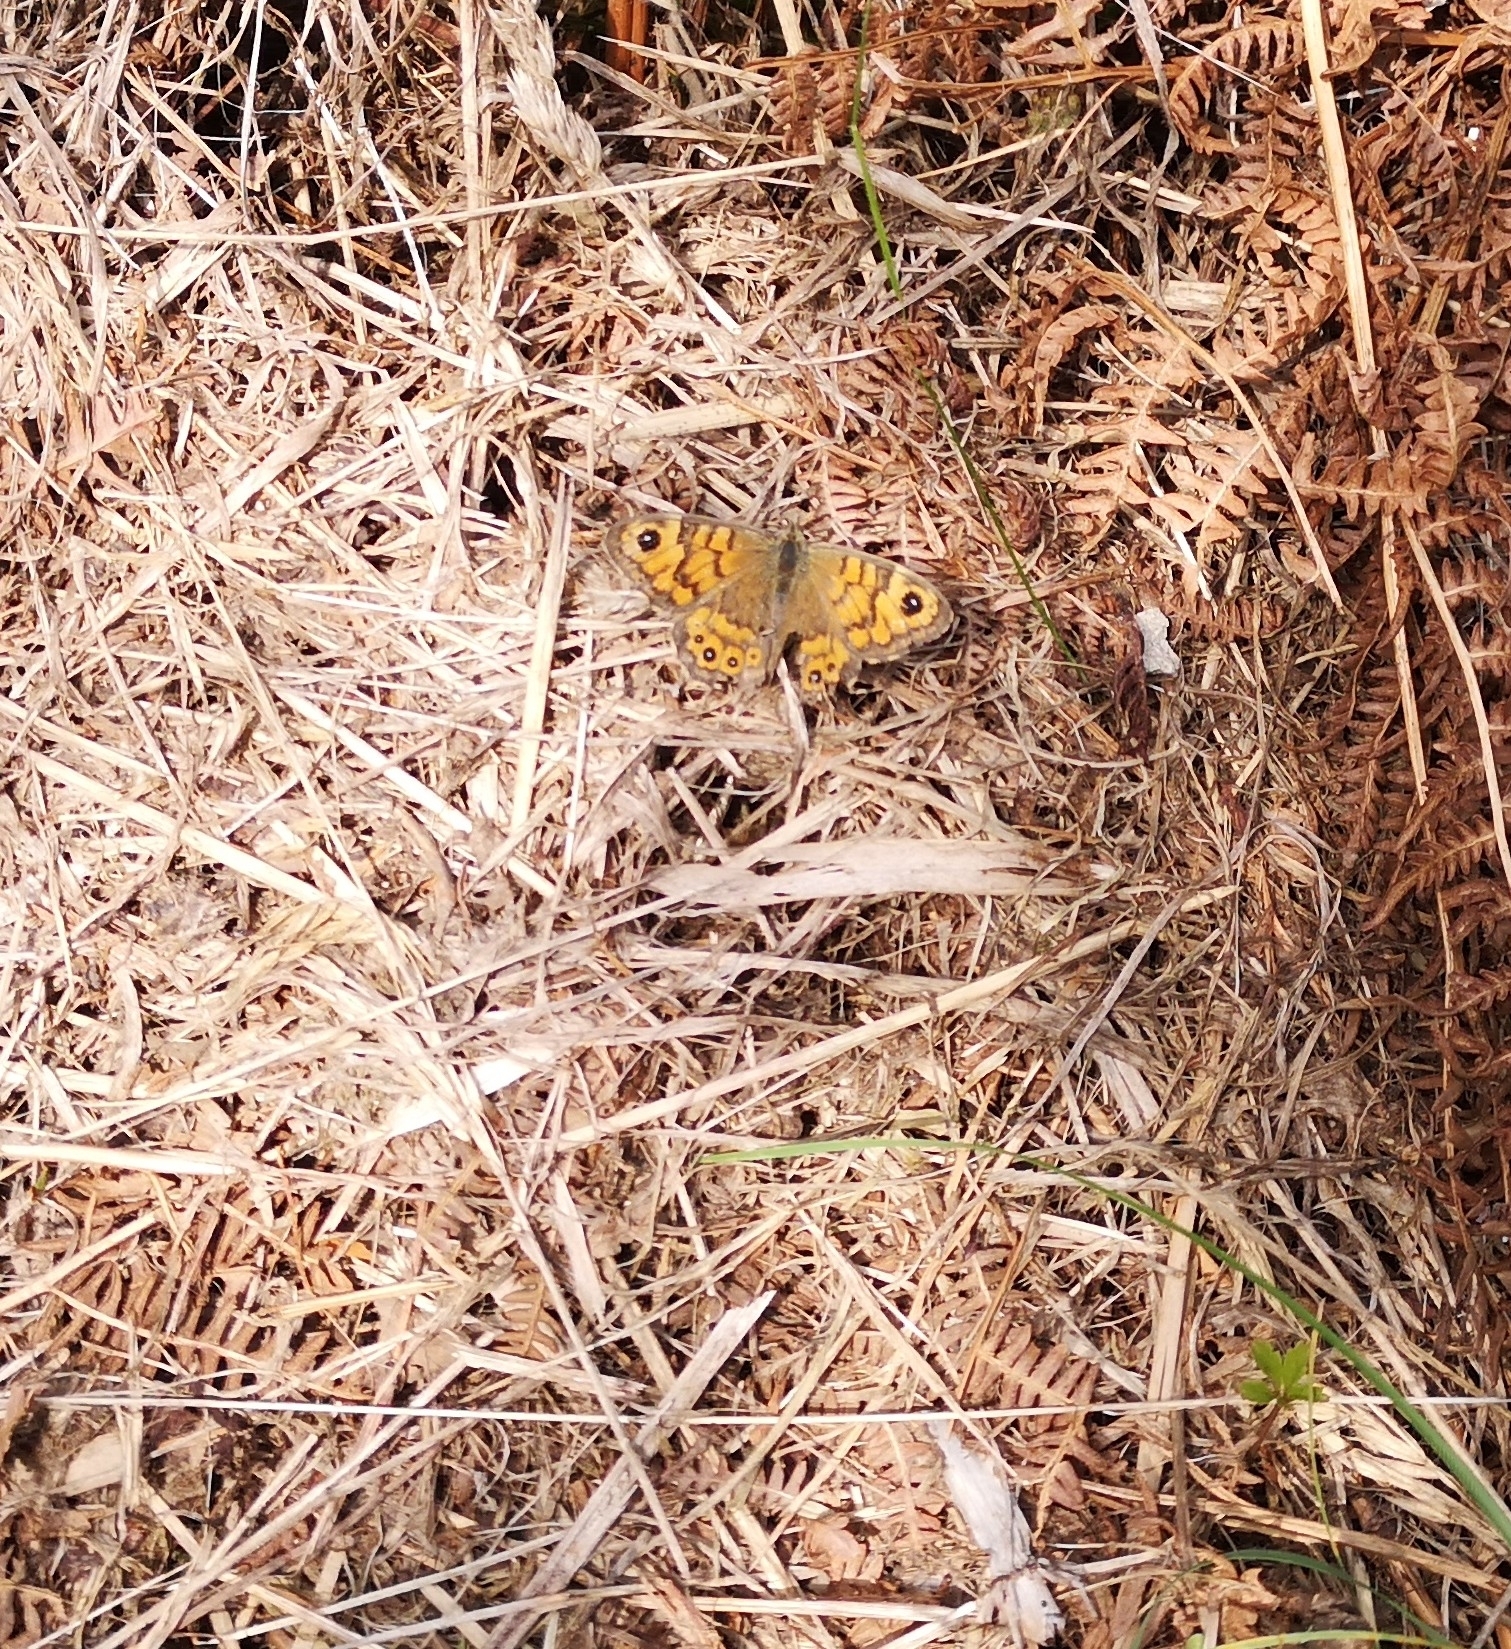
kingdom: Animalia
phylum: Arthropoda
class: Insecta
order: Lepidoptera
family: Nymphalidae
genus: Pararge
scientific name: Pararge Lasiommata megera
